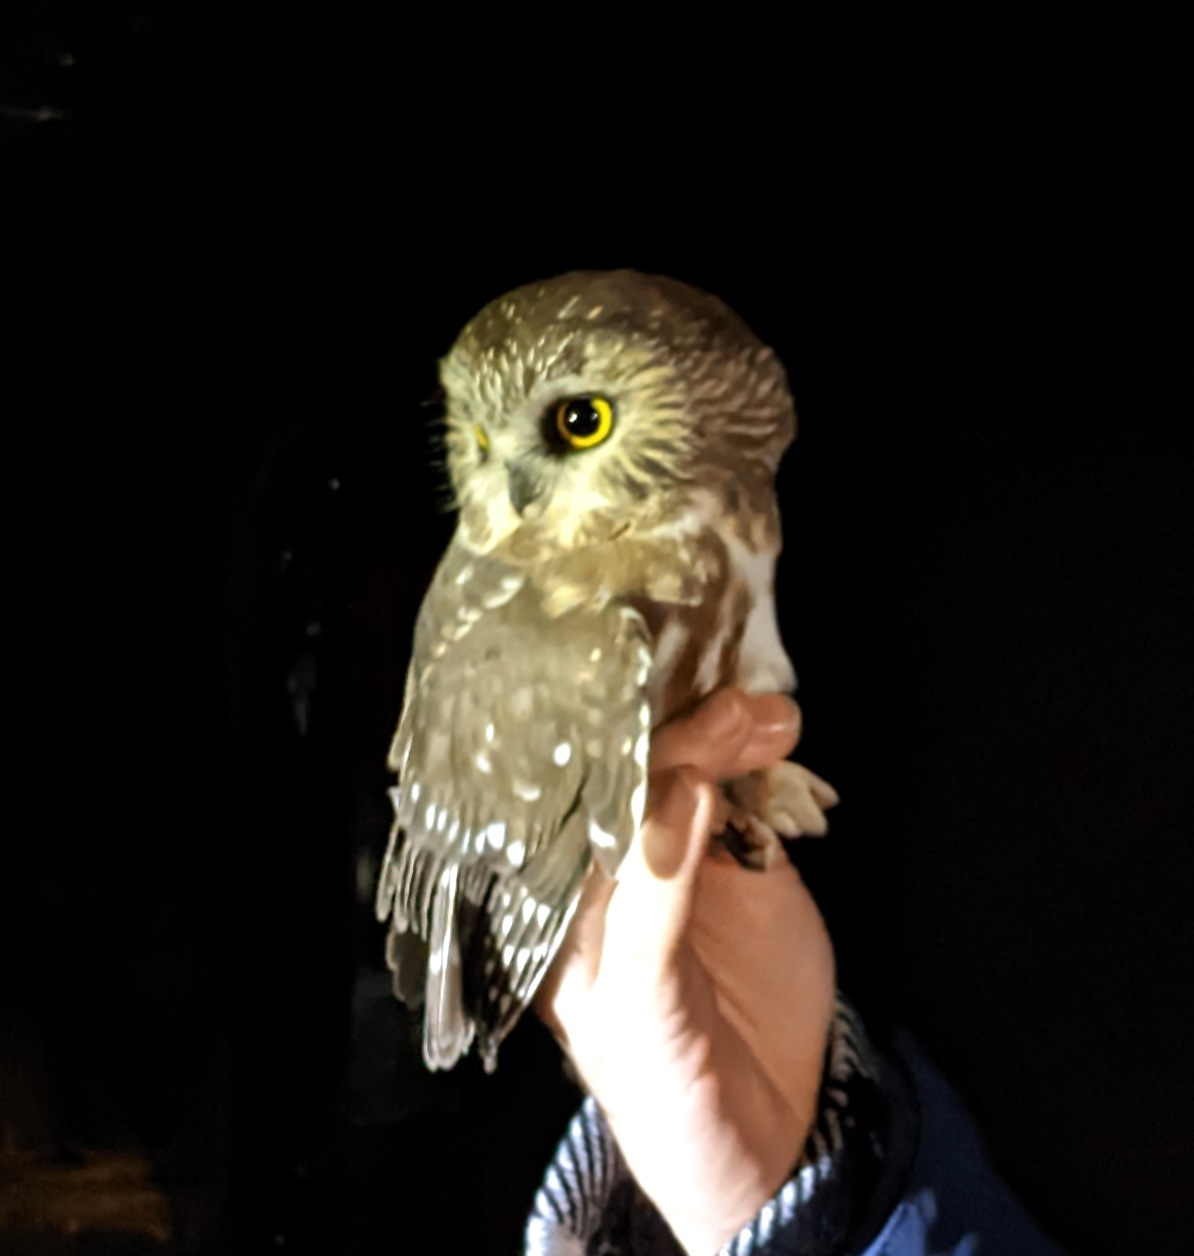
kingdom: Animalia
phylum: Chordata
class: Aves
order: Strigiformes
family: Strigidae
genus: Aegolius
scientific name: Aegolius acadicus
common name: Northern saw-whet owl
